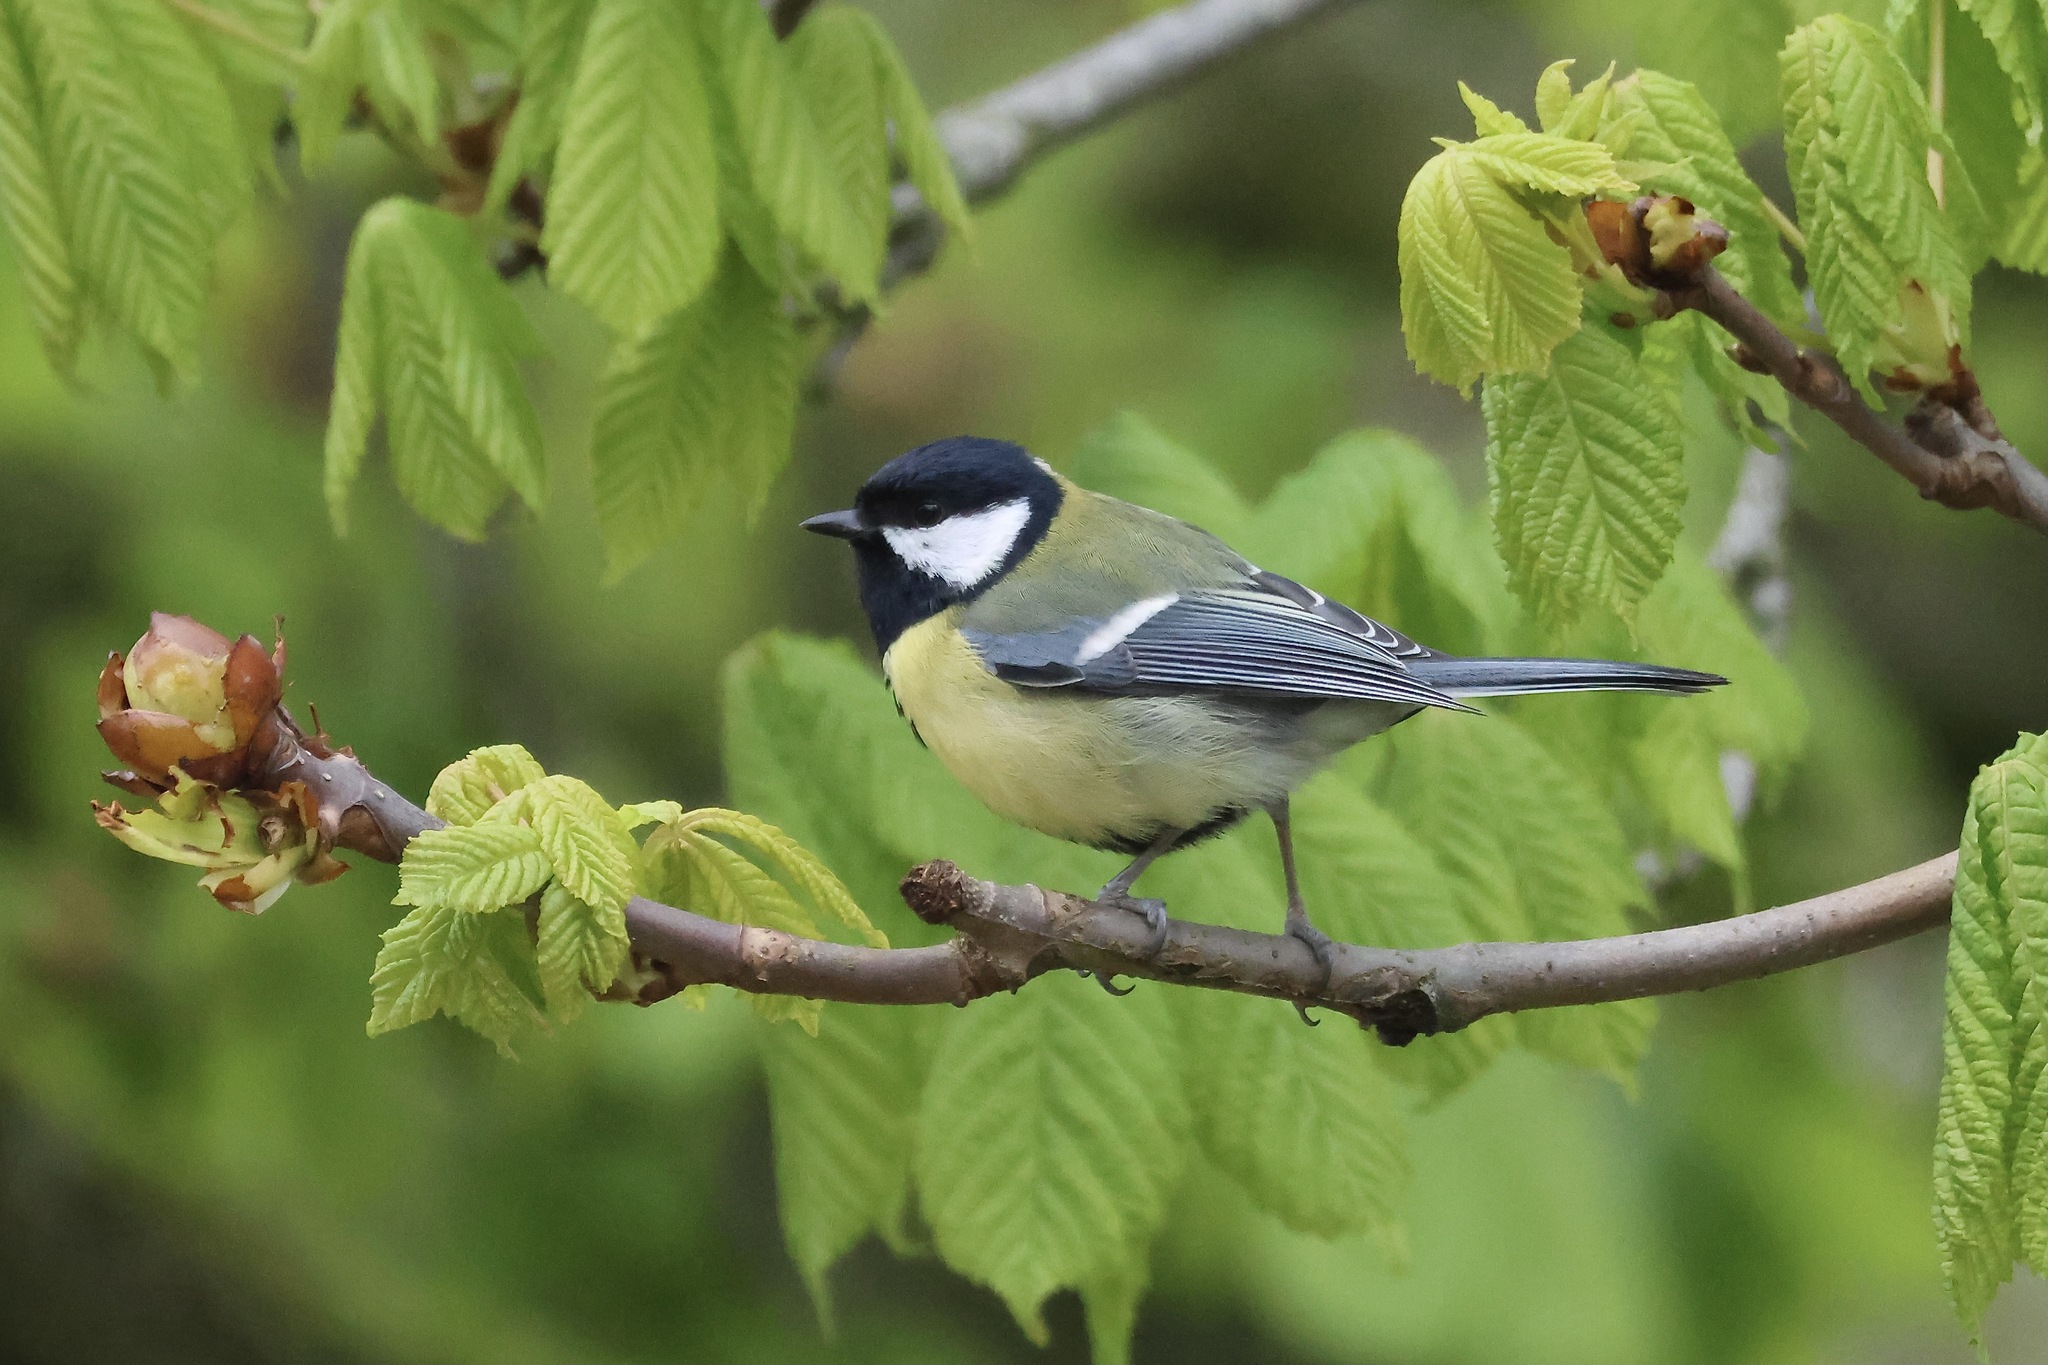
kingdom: Animalia
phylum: Chordata
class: Aves
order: Passeriformes
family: Paridae
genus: Parus
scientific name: Parus major
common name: Great tit
